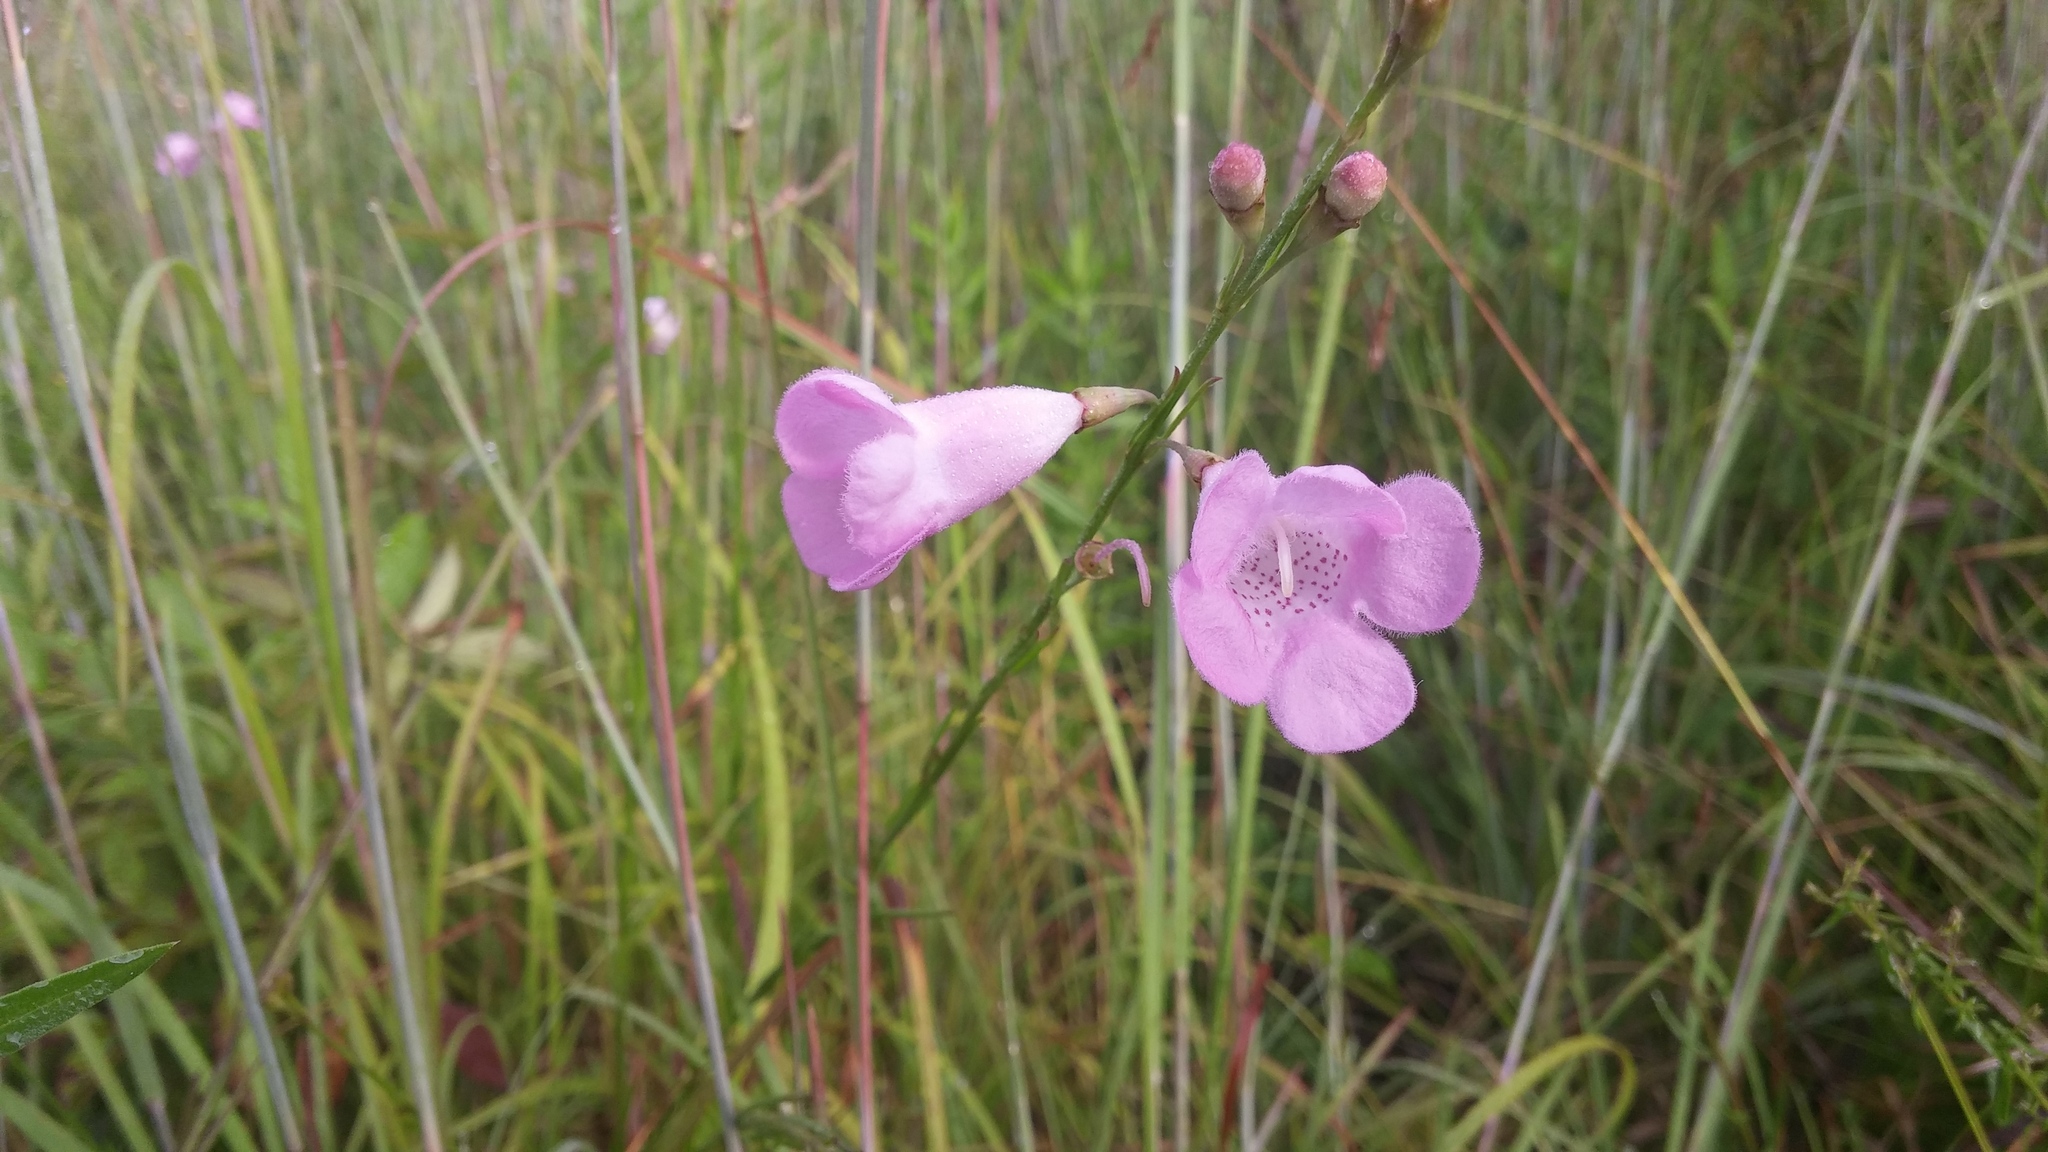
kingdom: Plantae
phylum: Tracheophyta
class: Magnoliopsida
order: Lamiales
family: Orobanchaceae
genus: Agalinis
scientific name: Agalinis linifolia
